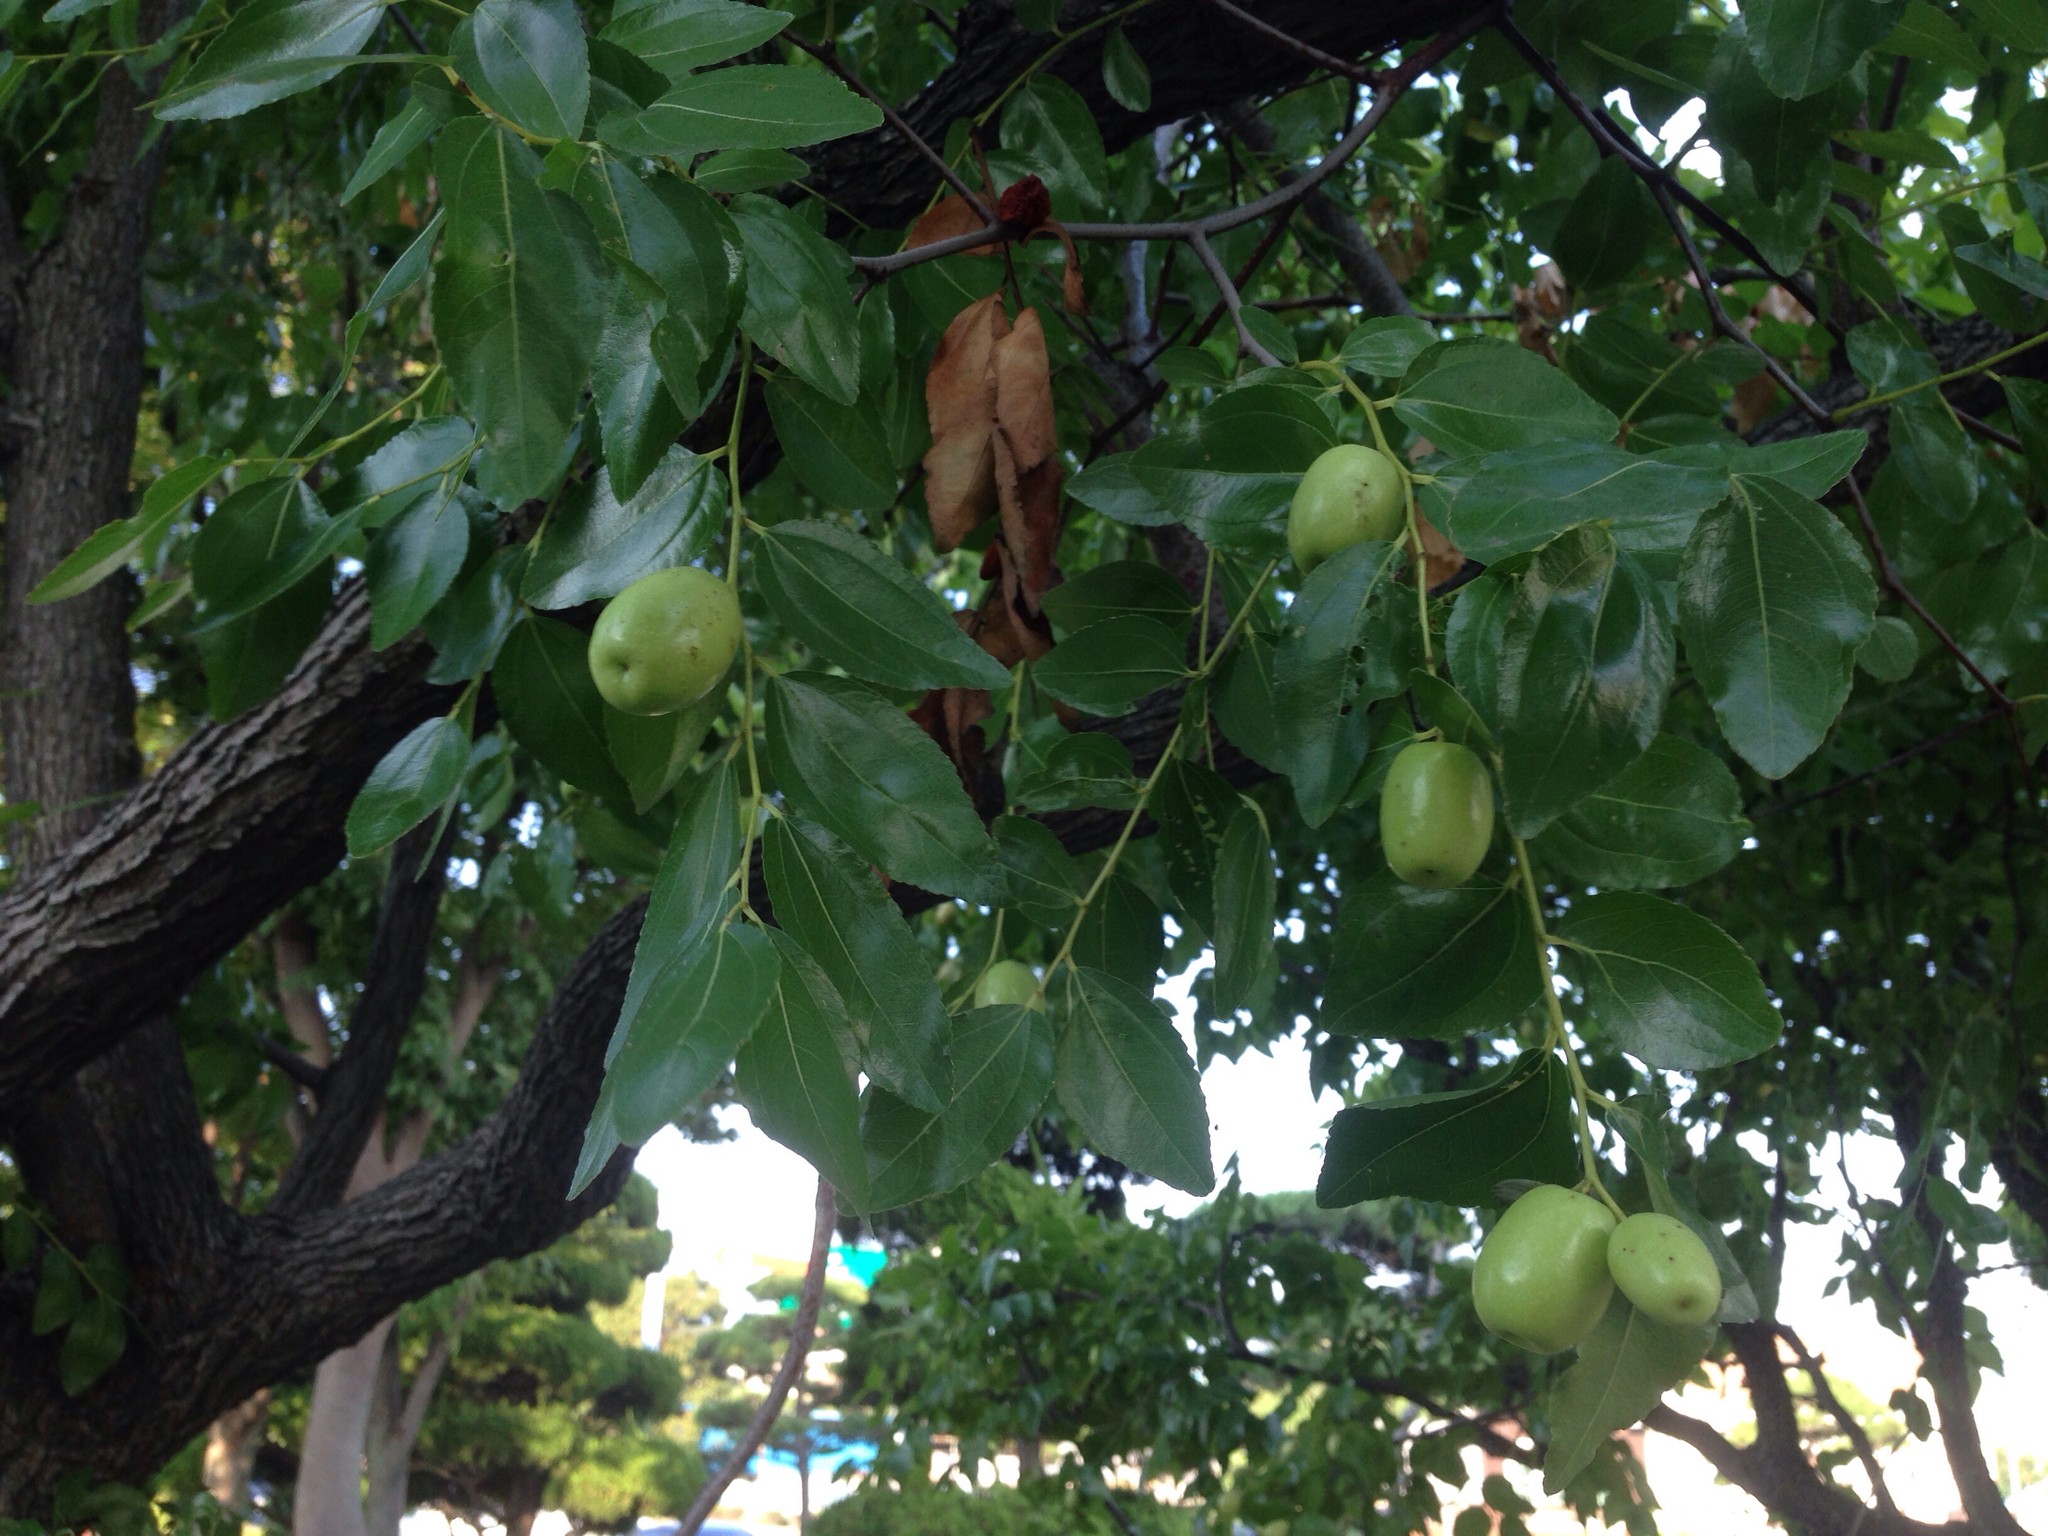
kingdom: Plantae
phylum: Tracheophyta
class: Magnoliopsida
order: Rosales
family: Rhamnaceae
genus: Ziziphus
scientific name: Ziziphus jujuba
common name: Jujube red date
